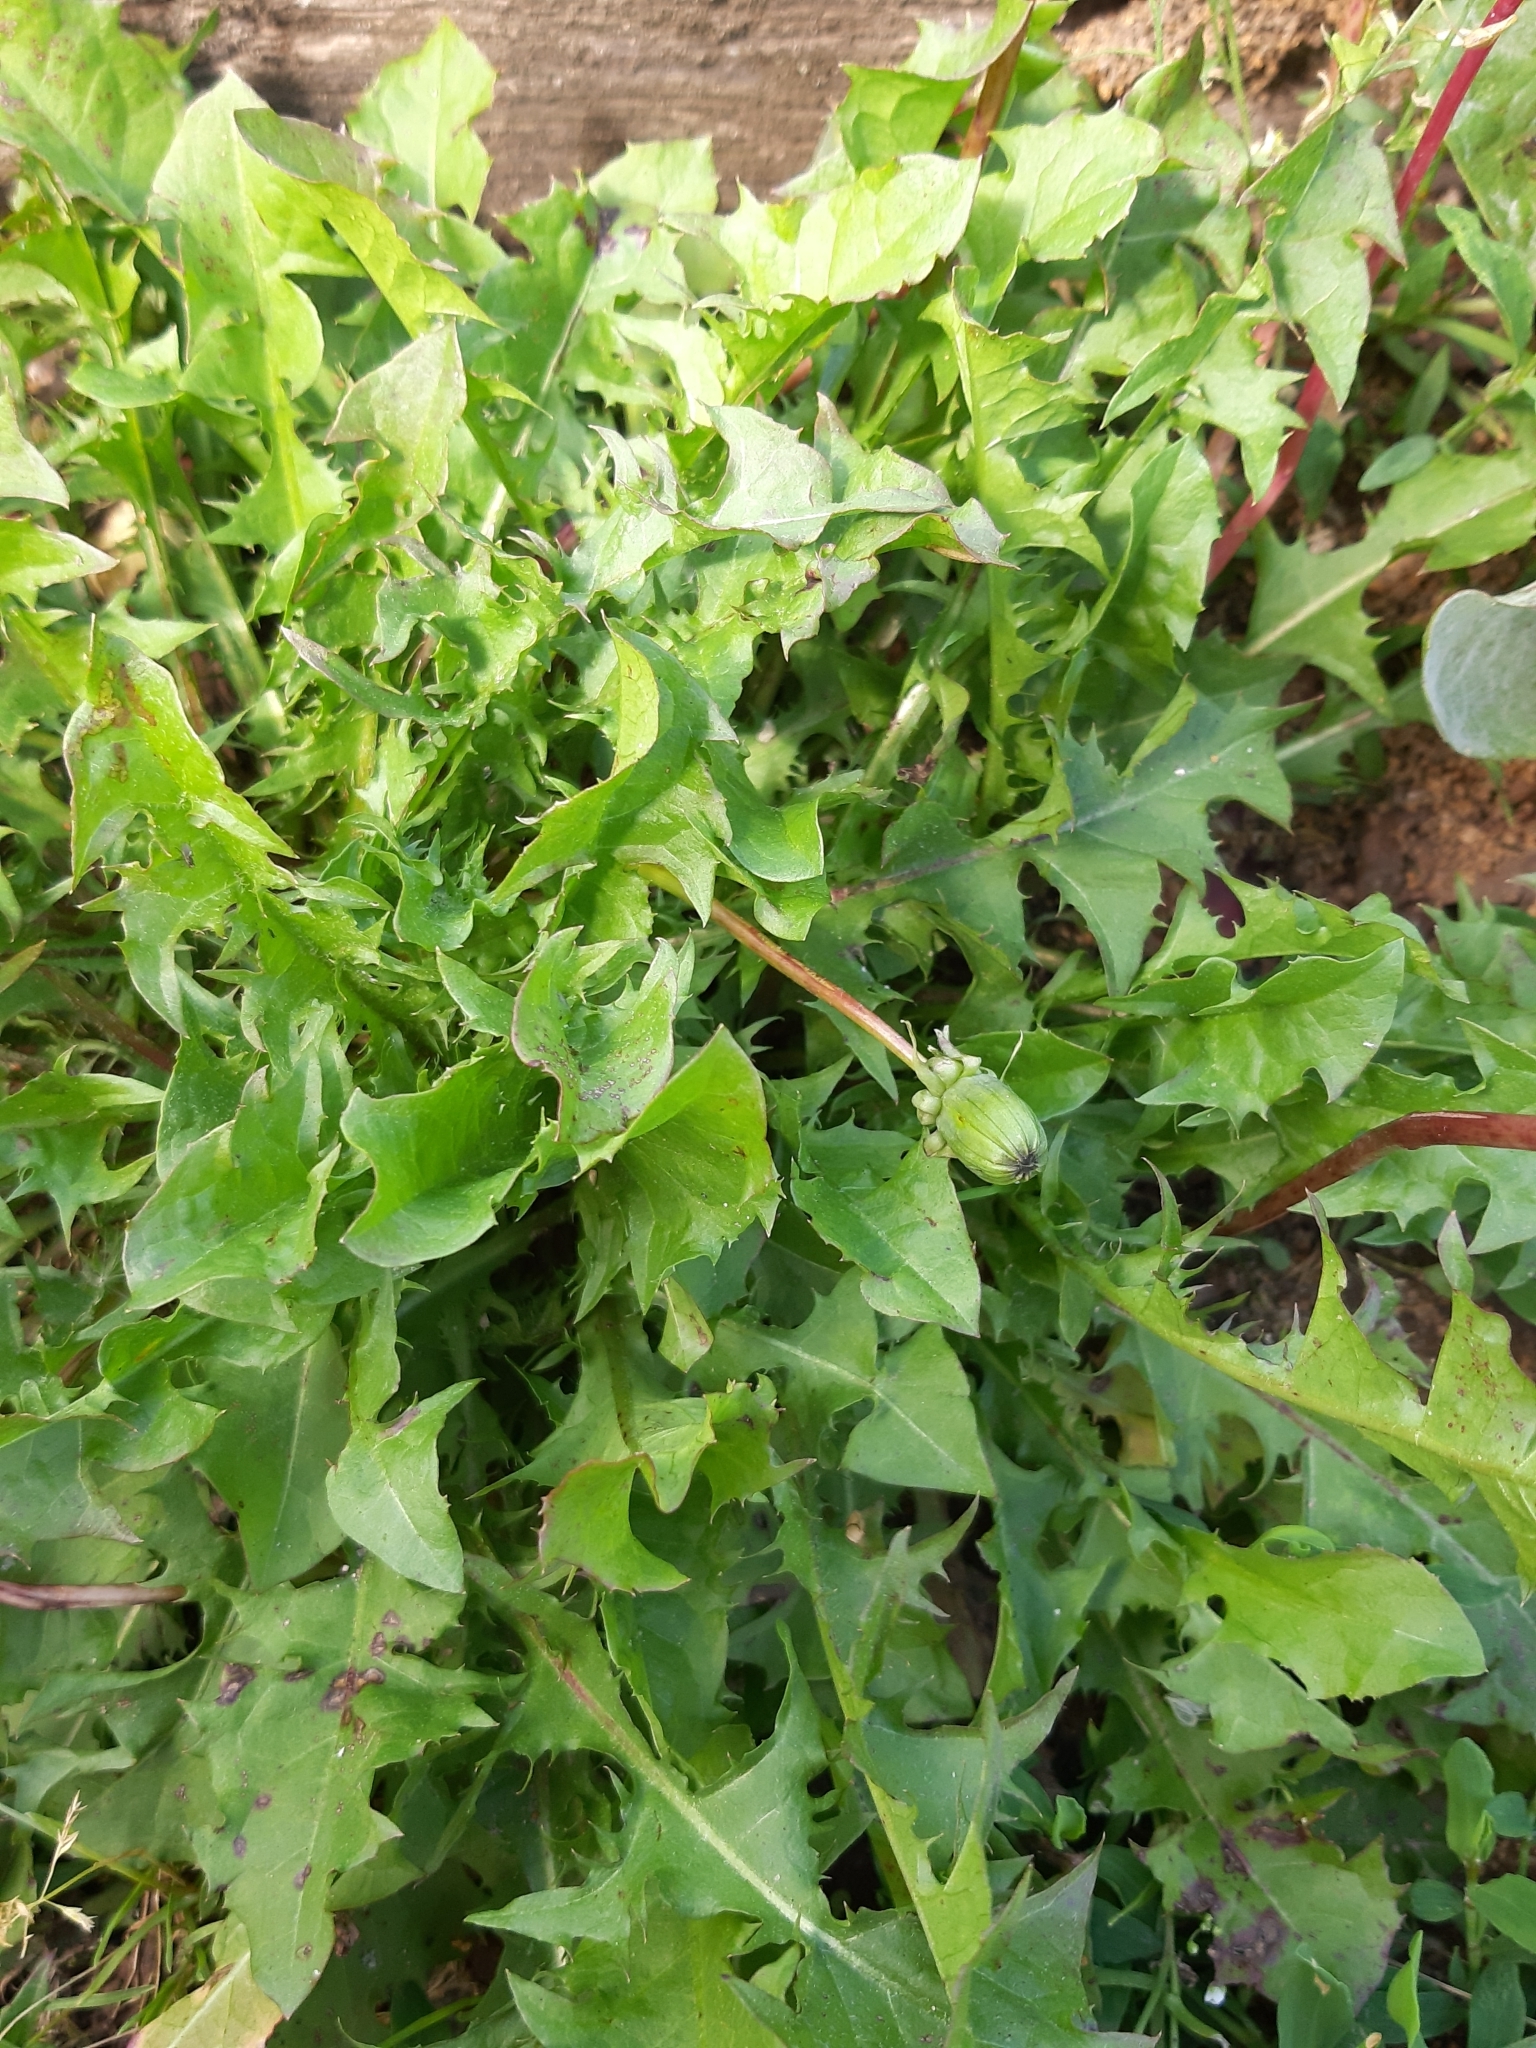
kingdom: Plantae
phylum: Tracheophyta
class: Magnoliopsida
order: Asterales
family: Asteraceae
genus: Taraxacum
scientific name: Taraxacum officinale
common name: Common dandelion
